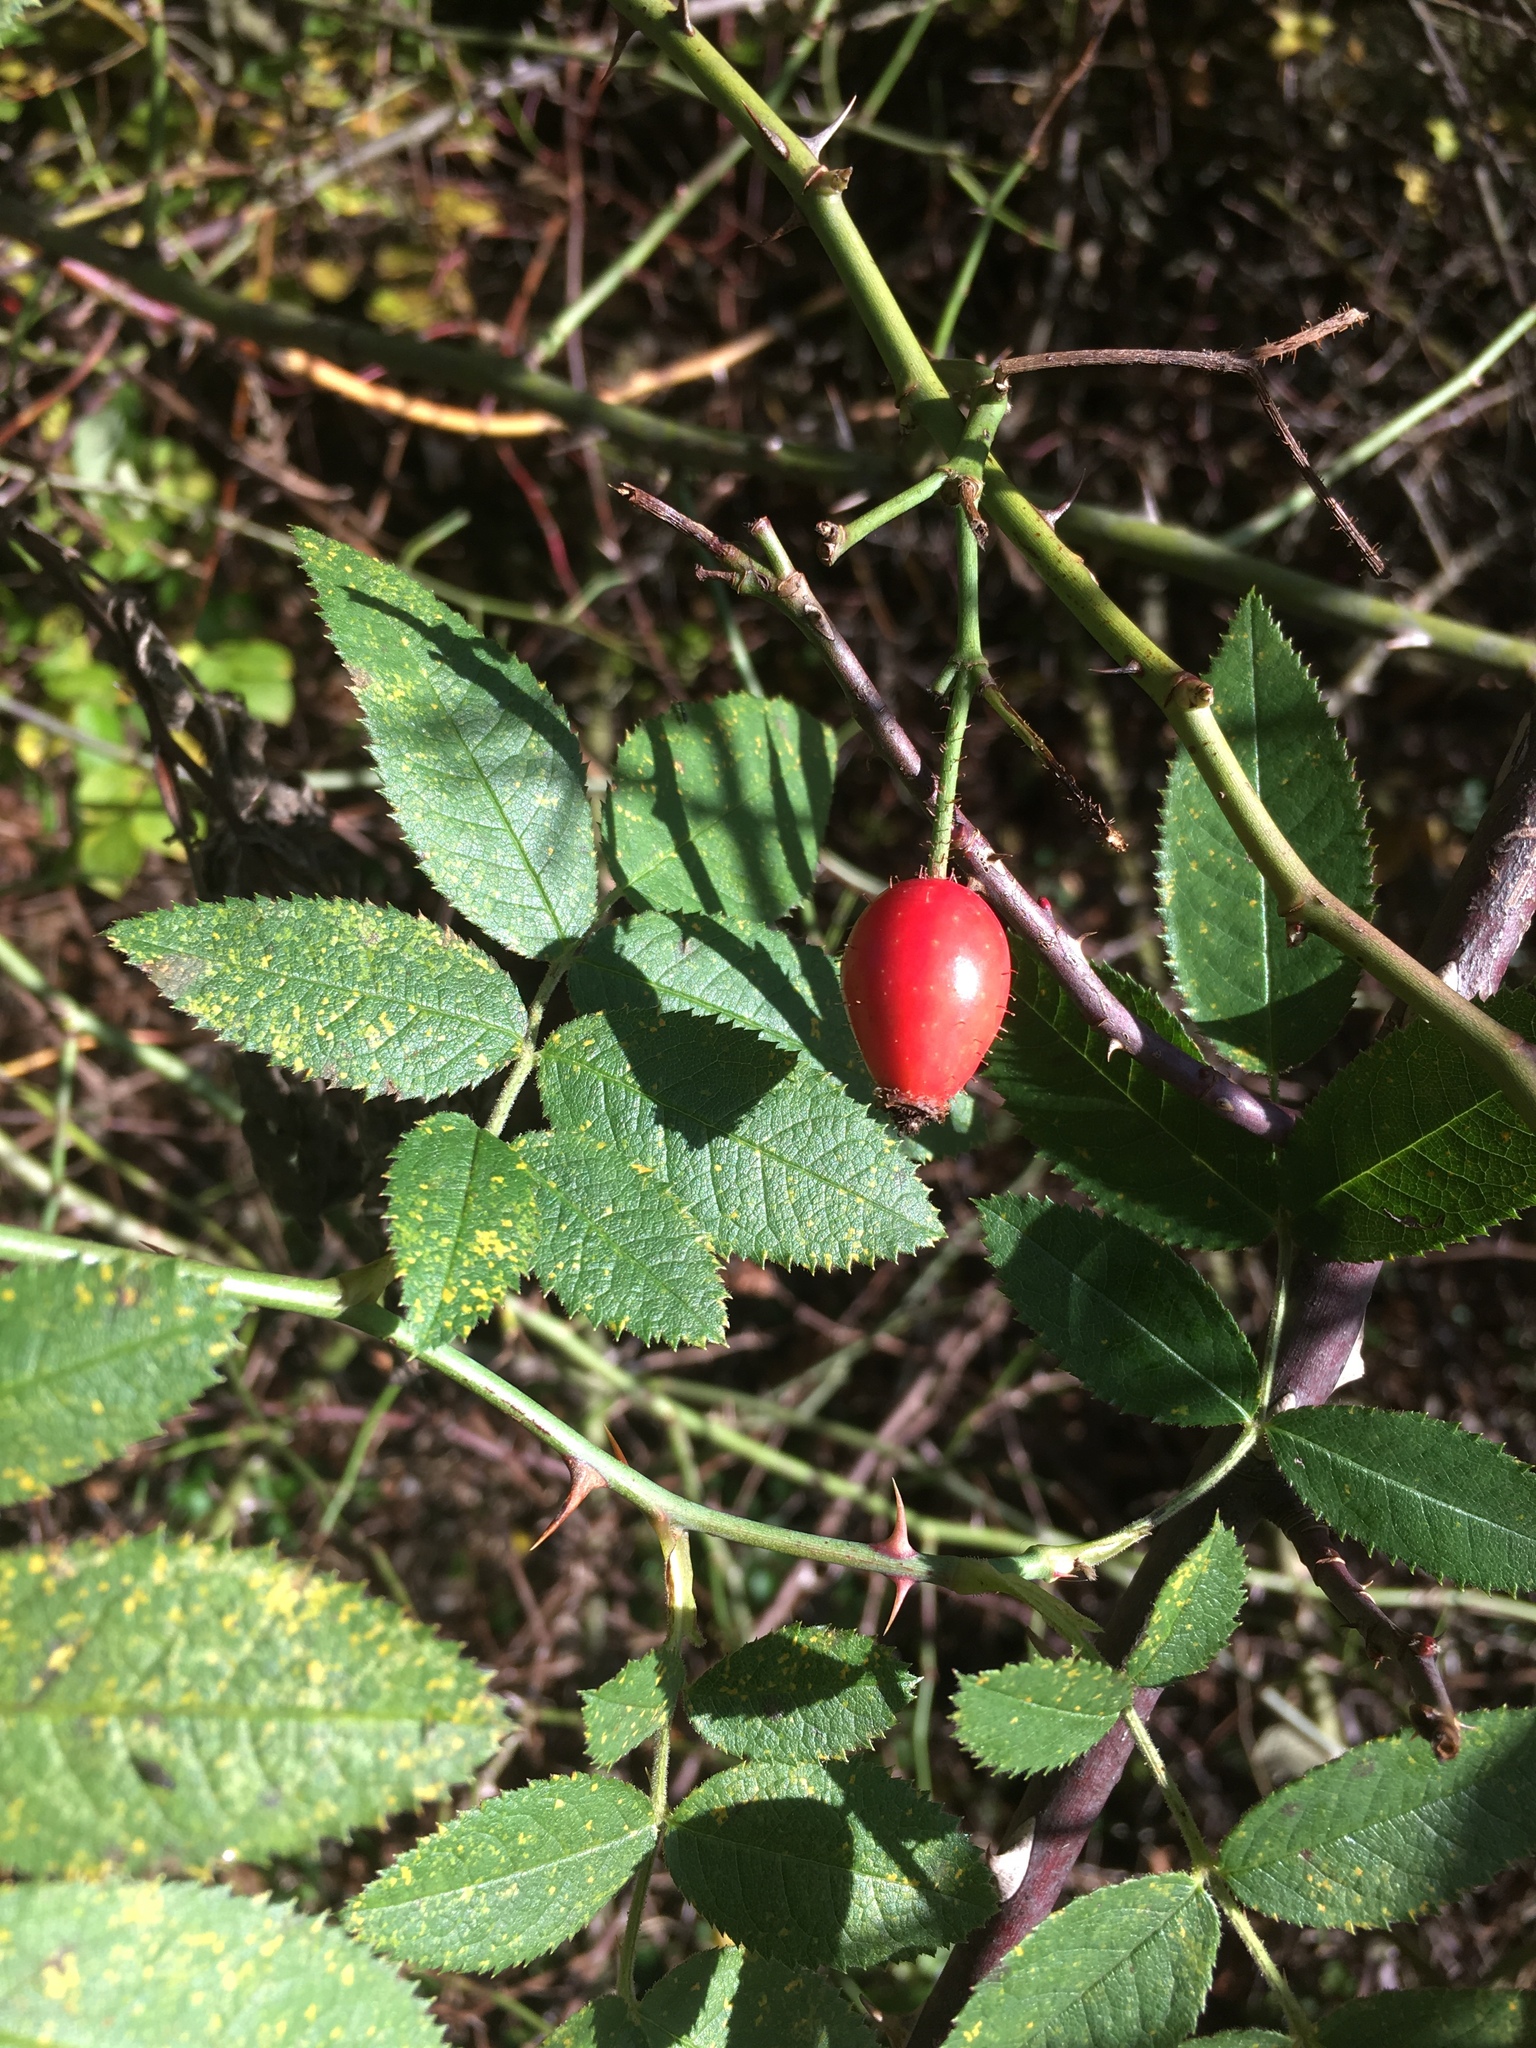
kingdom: Plantae
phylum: Tracheophyta
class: Magnoliopsida
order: Rosales
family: Rosaceae
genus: Rosa
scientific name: Rosa canina
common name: Dog rose
